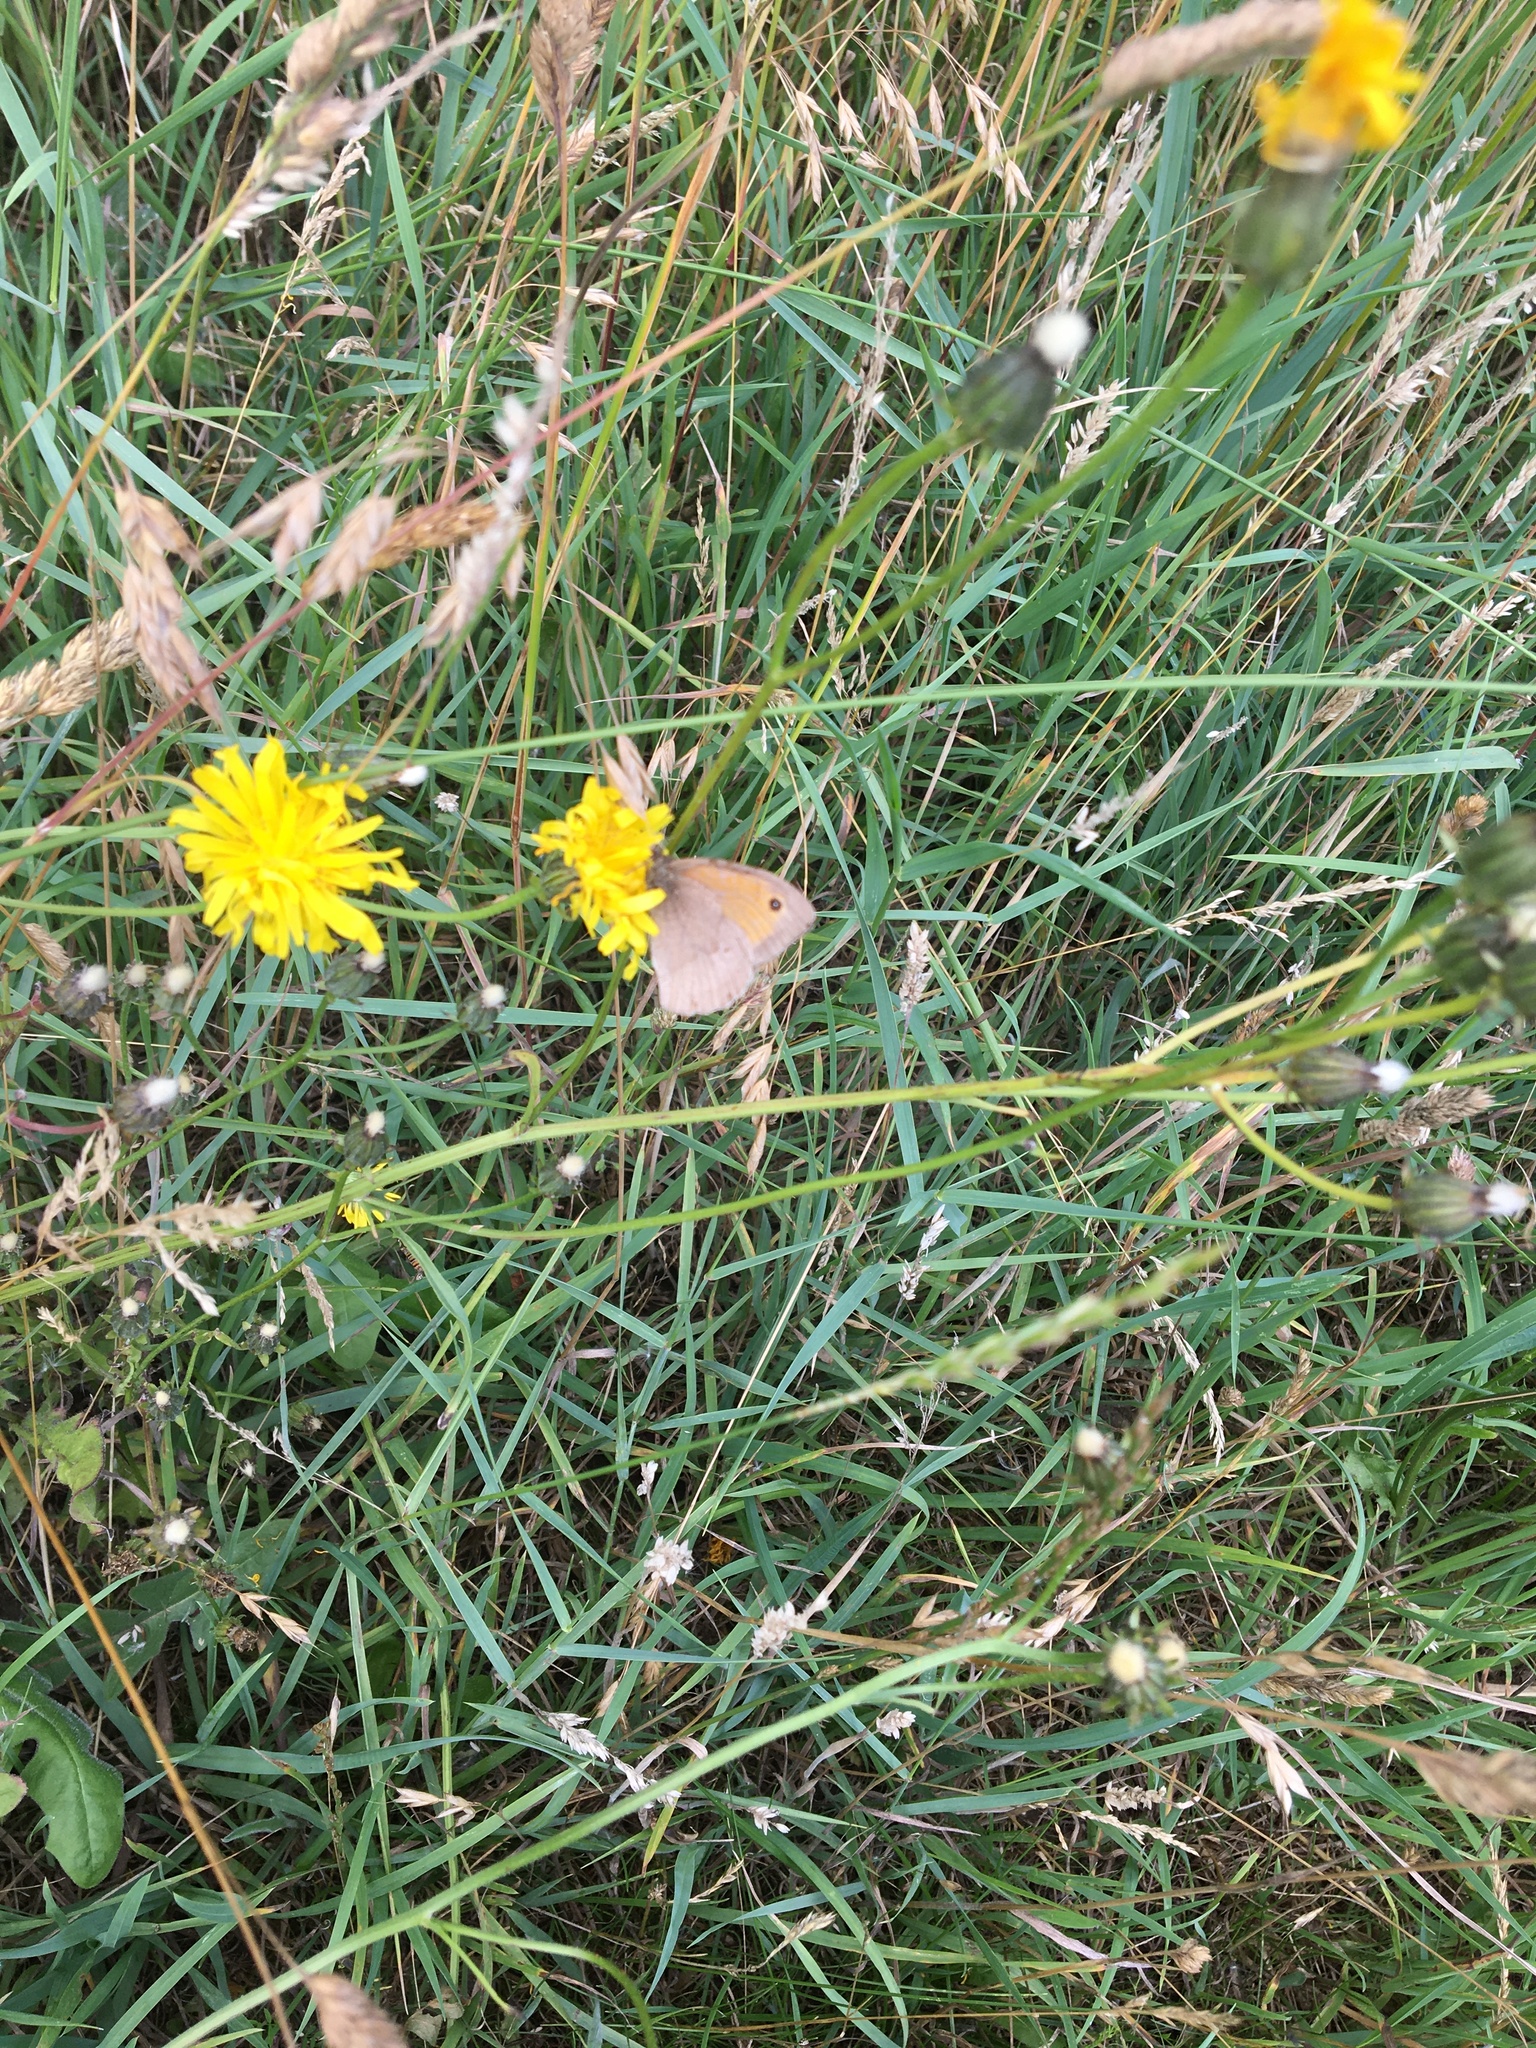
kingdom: Animalia
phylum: Arthropoda
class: Insecta
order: Lepidoptera
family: Nymphalidae
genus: Maniola
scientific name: Maniola jurtina
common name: Meadow brown
